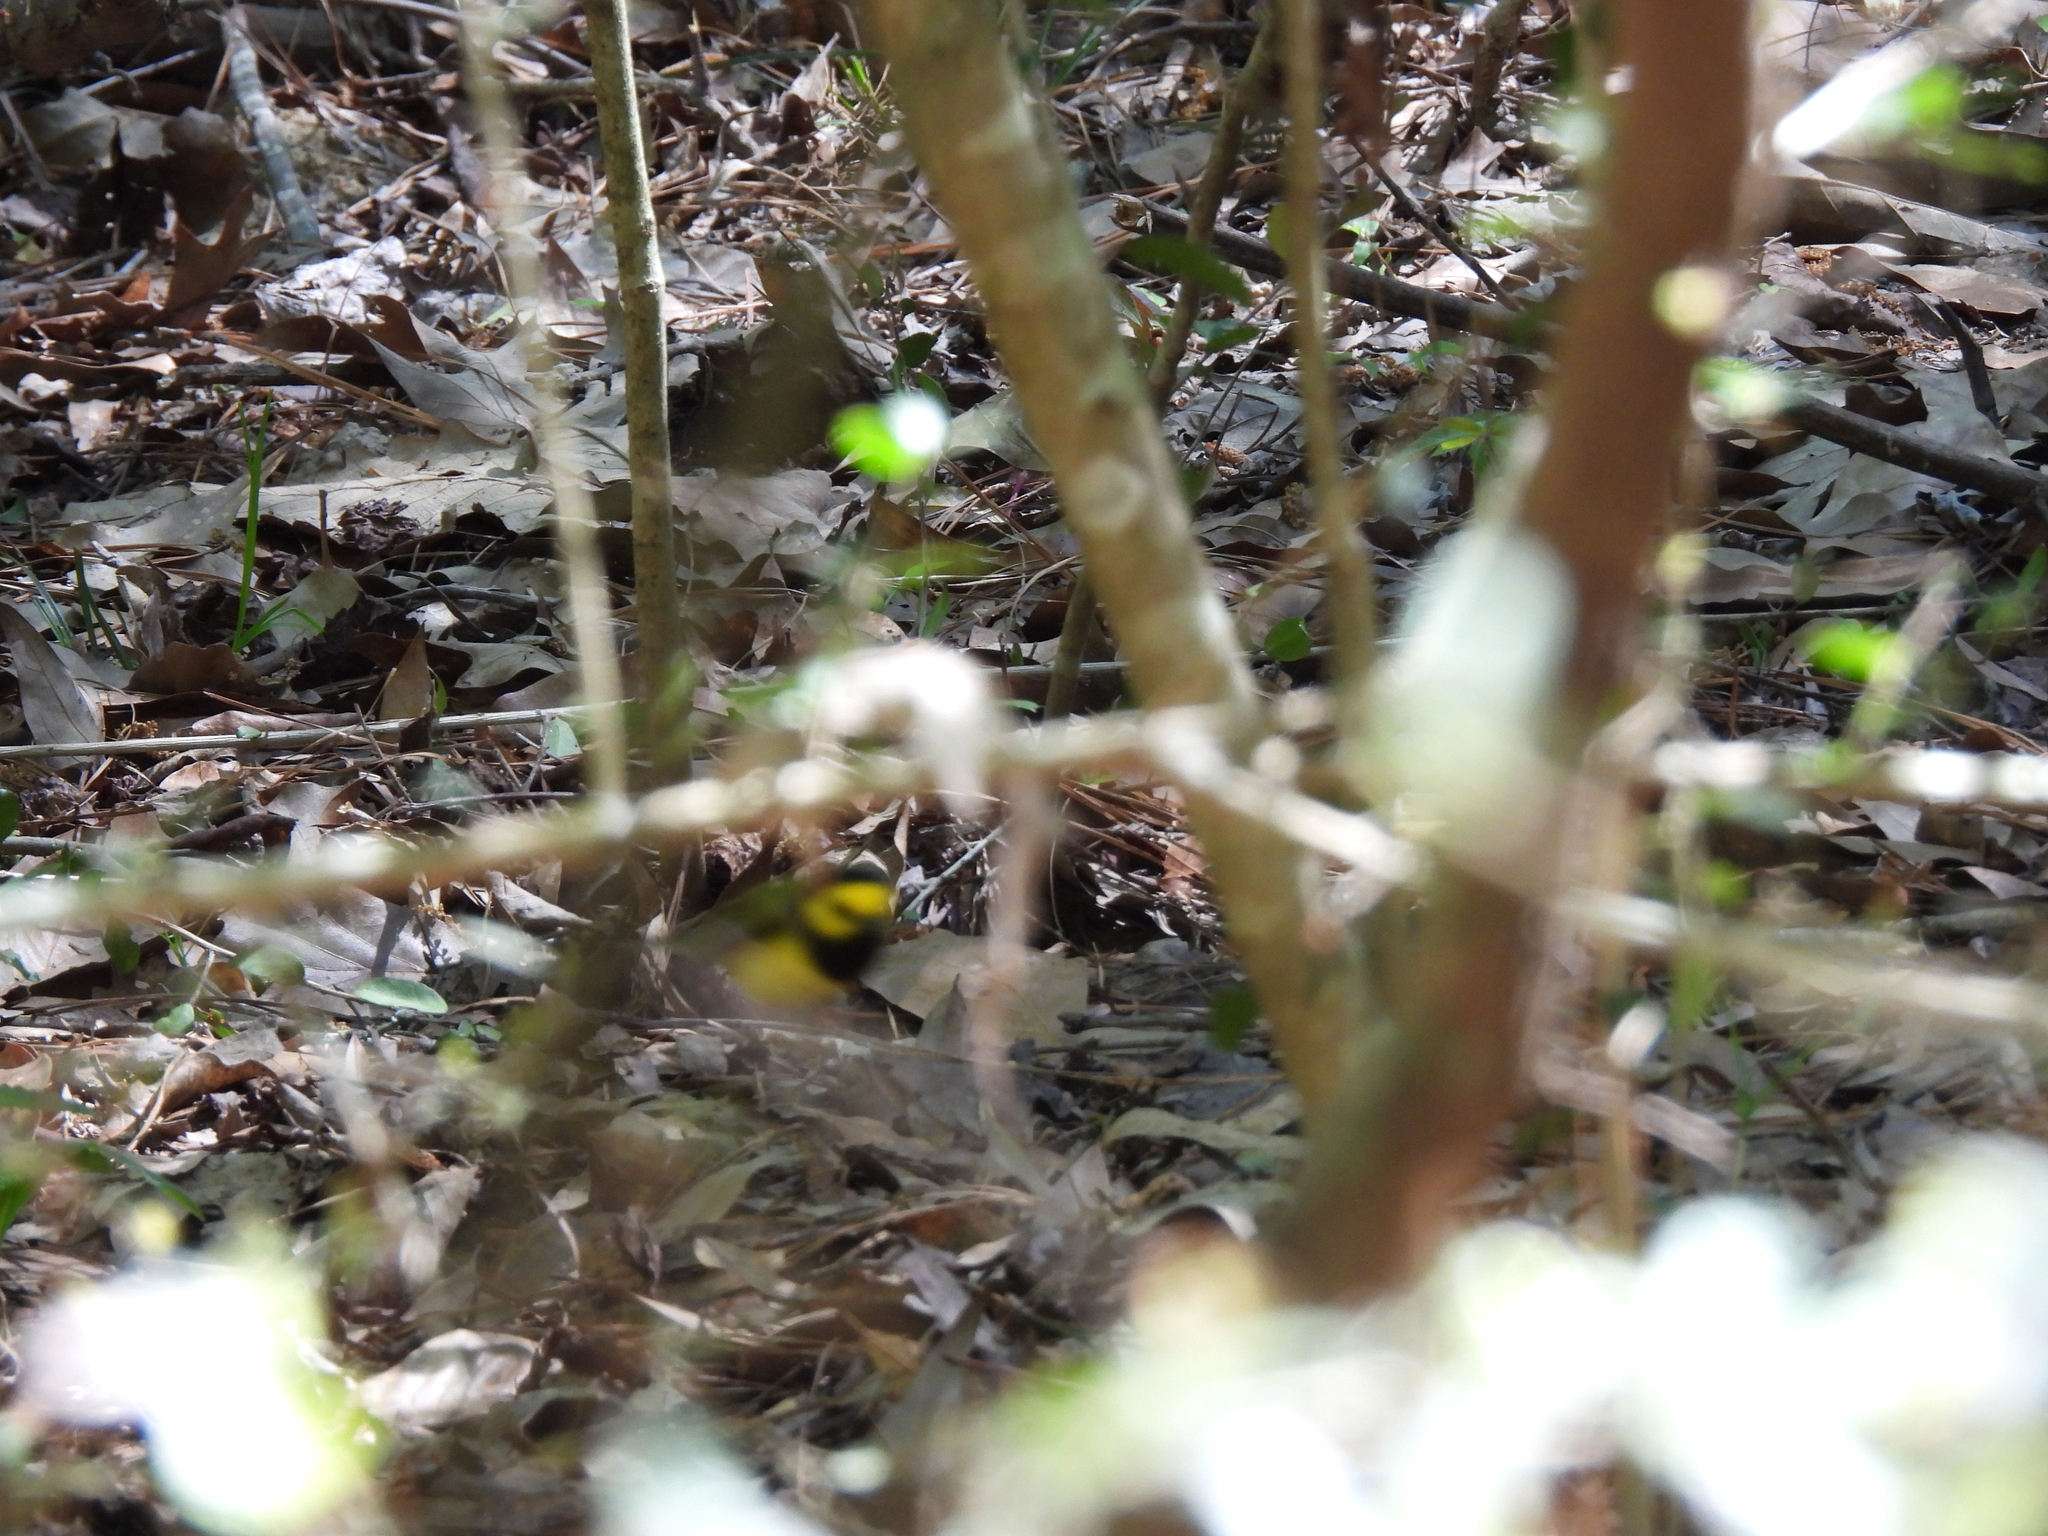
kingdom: Animalia
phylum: Chordata
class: Aves
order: Passeriformes
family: Parulidae
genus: Setophaga
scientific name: Setophaga citrina
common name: Hooded warbler
